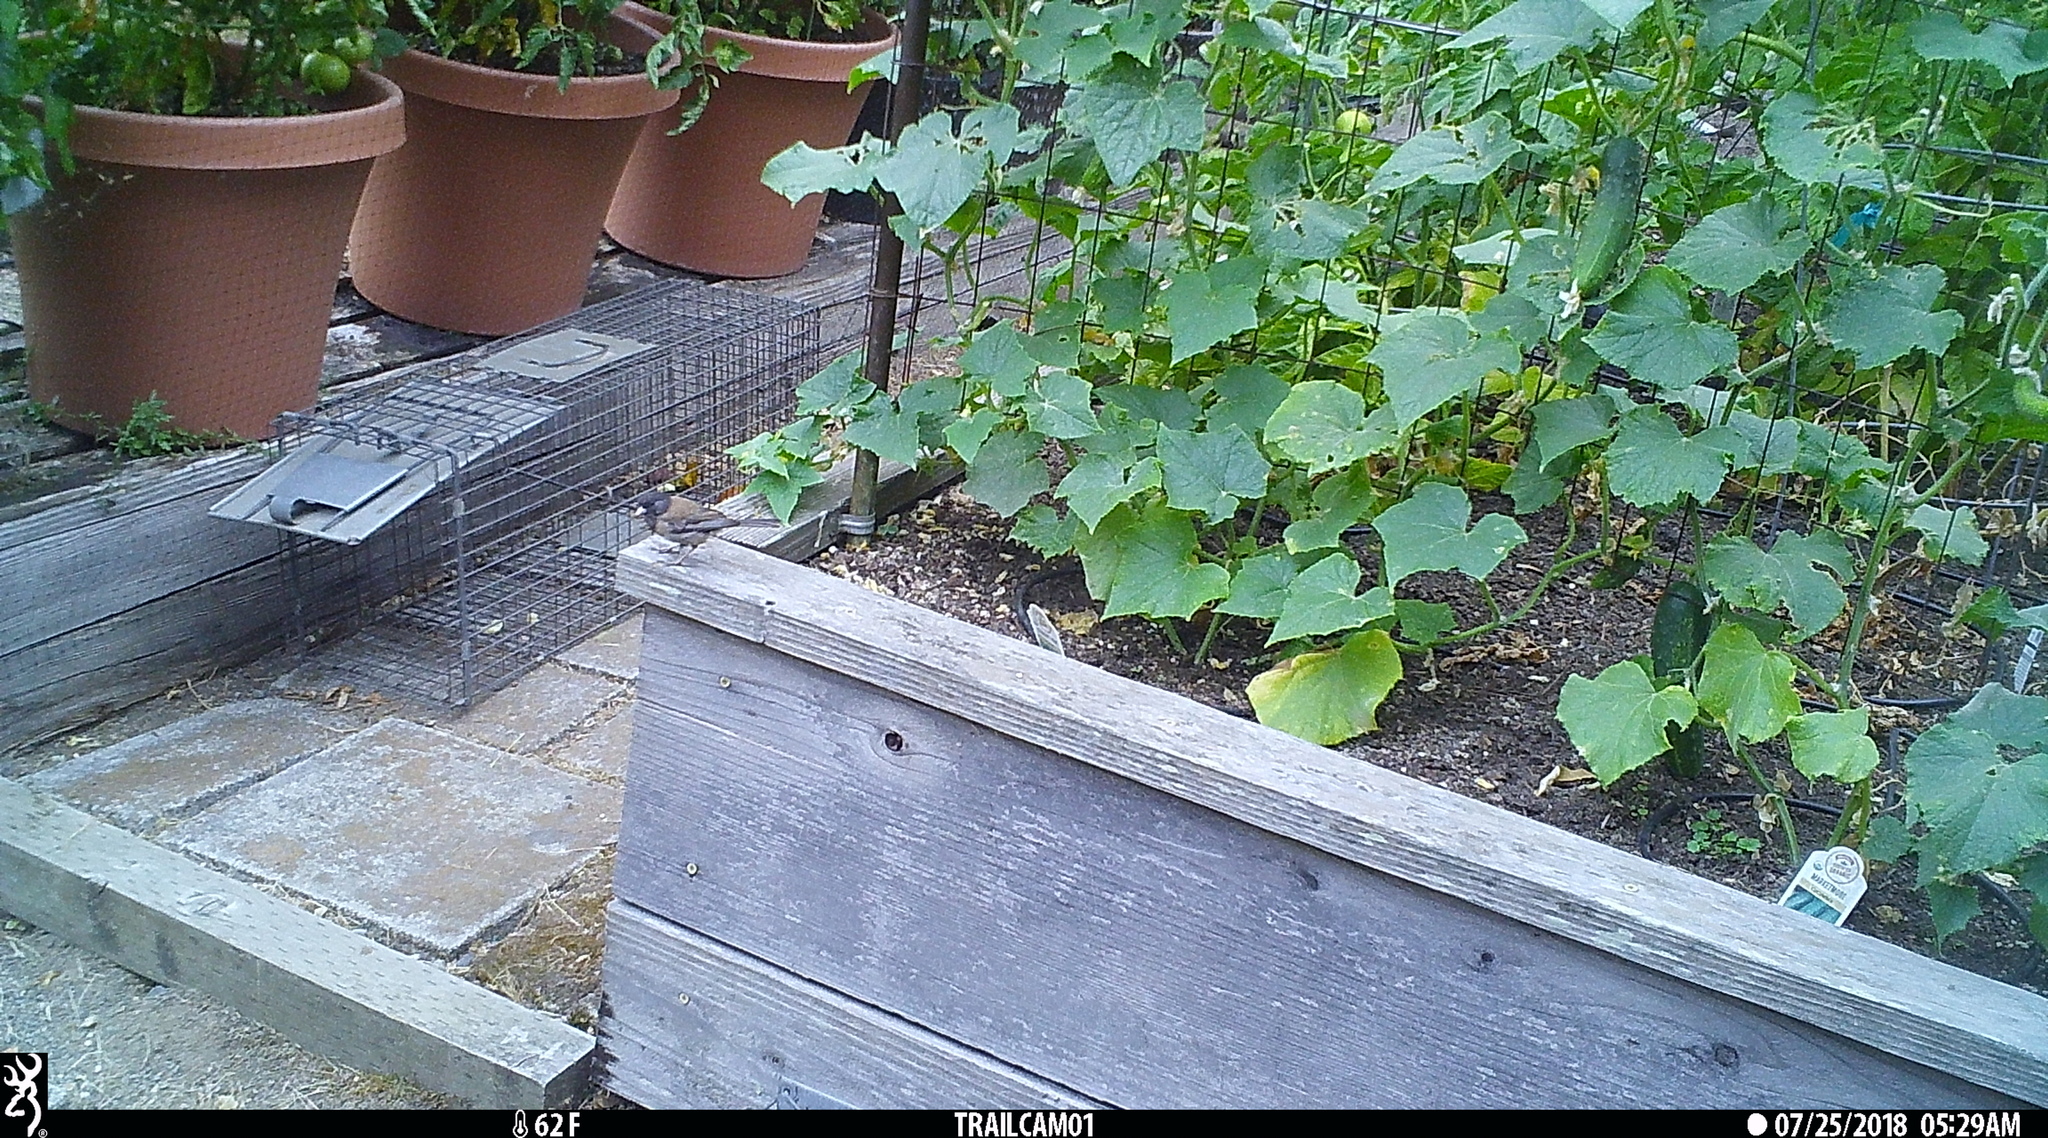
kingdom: Animalia
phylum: Chordata
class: Aves
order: Passeriformes
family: Passerellidae
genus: Junco
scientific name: Junco hyemalis
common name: Dark-eyed junco
